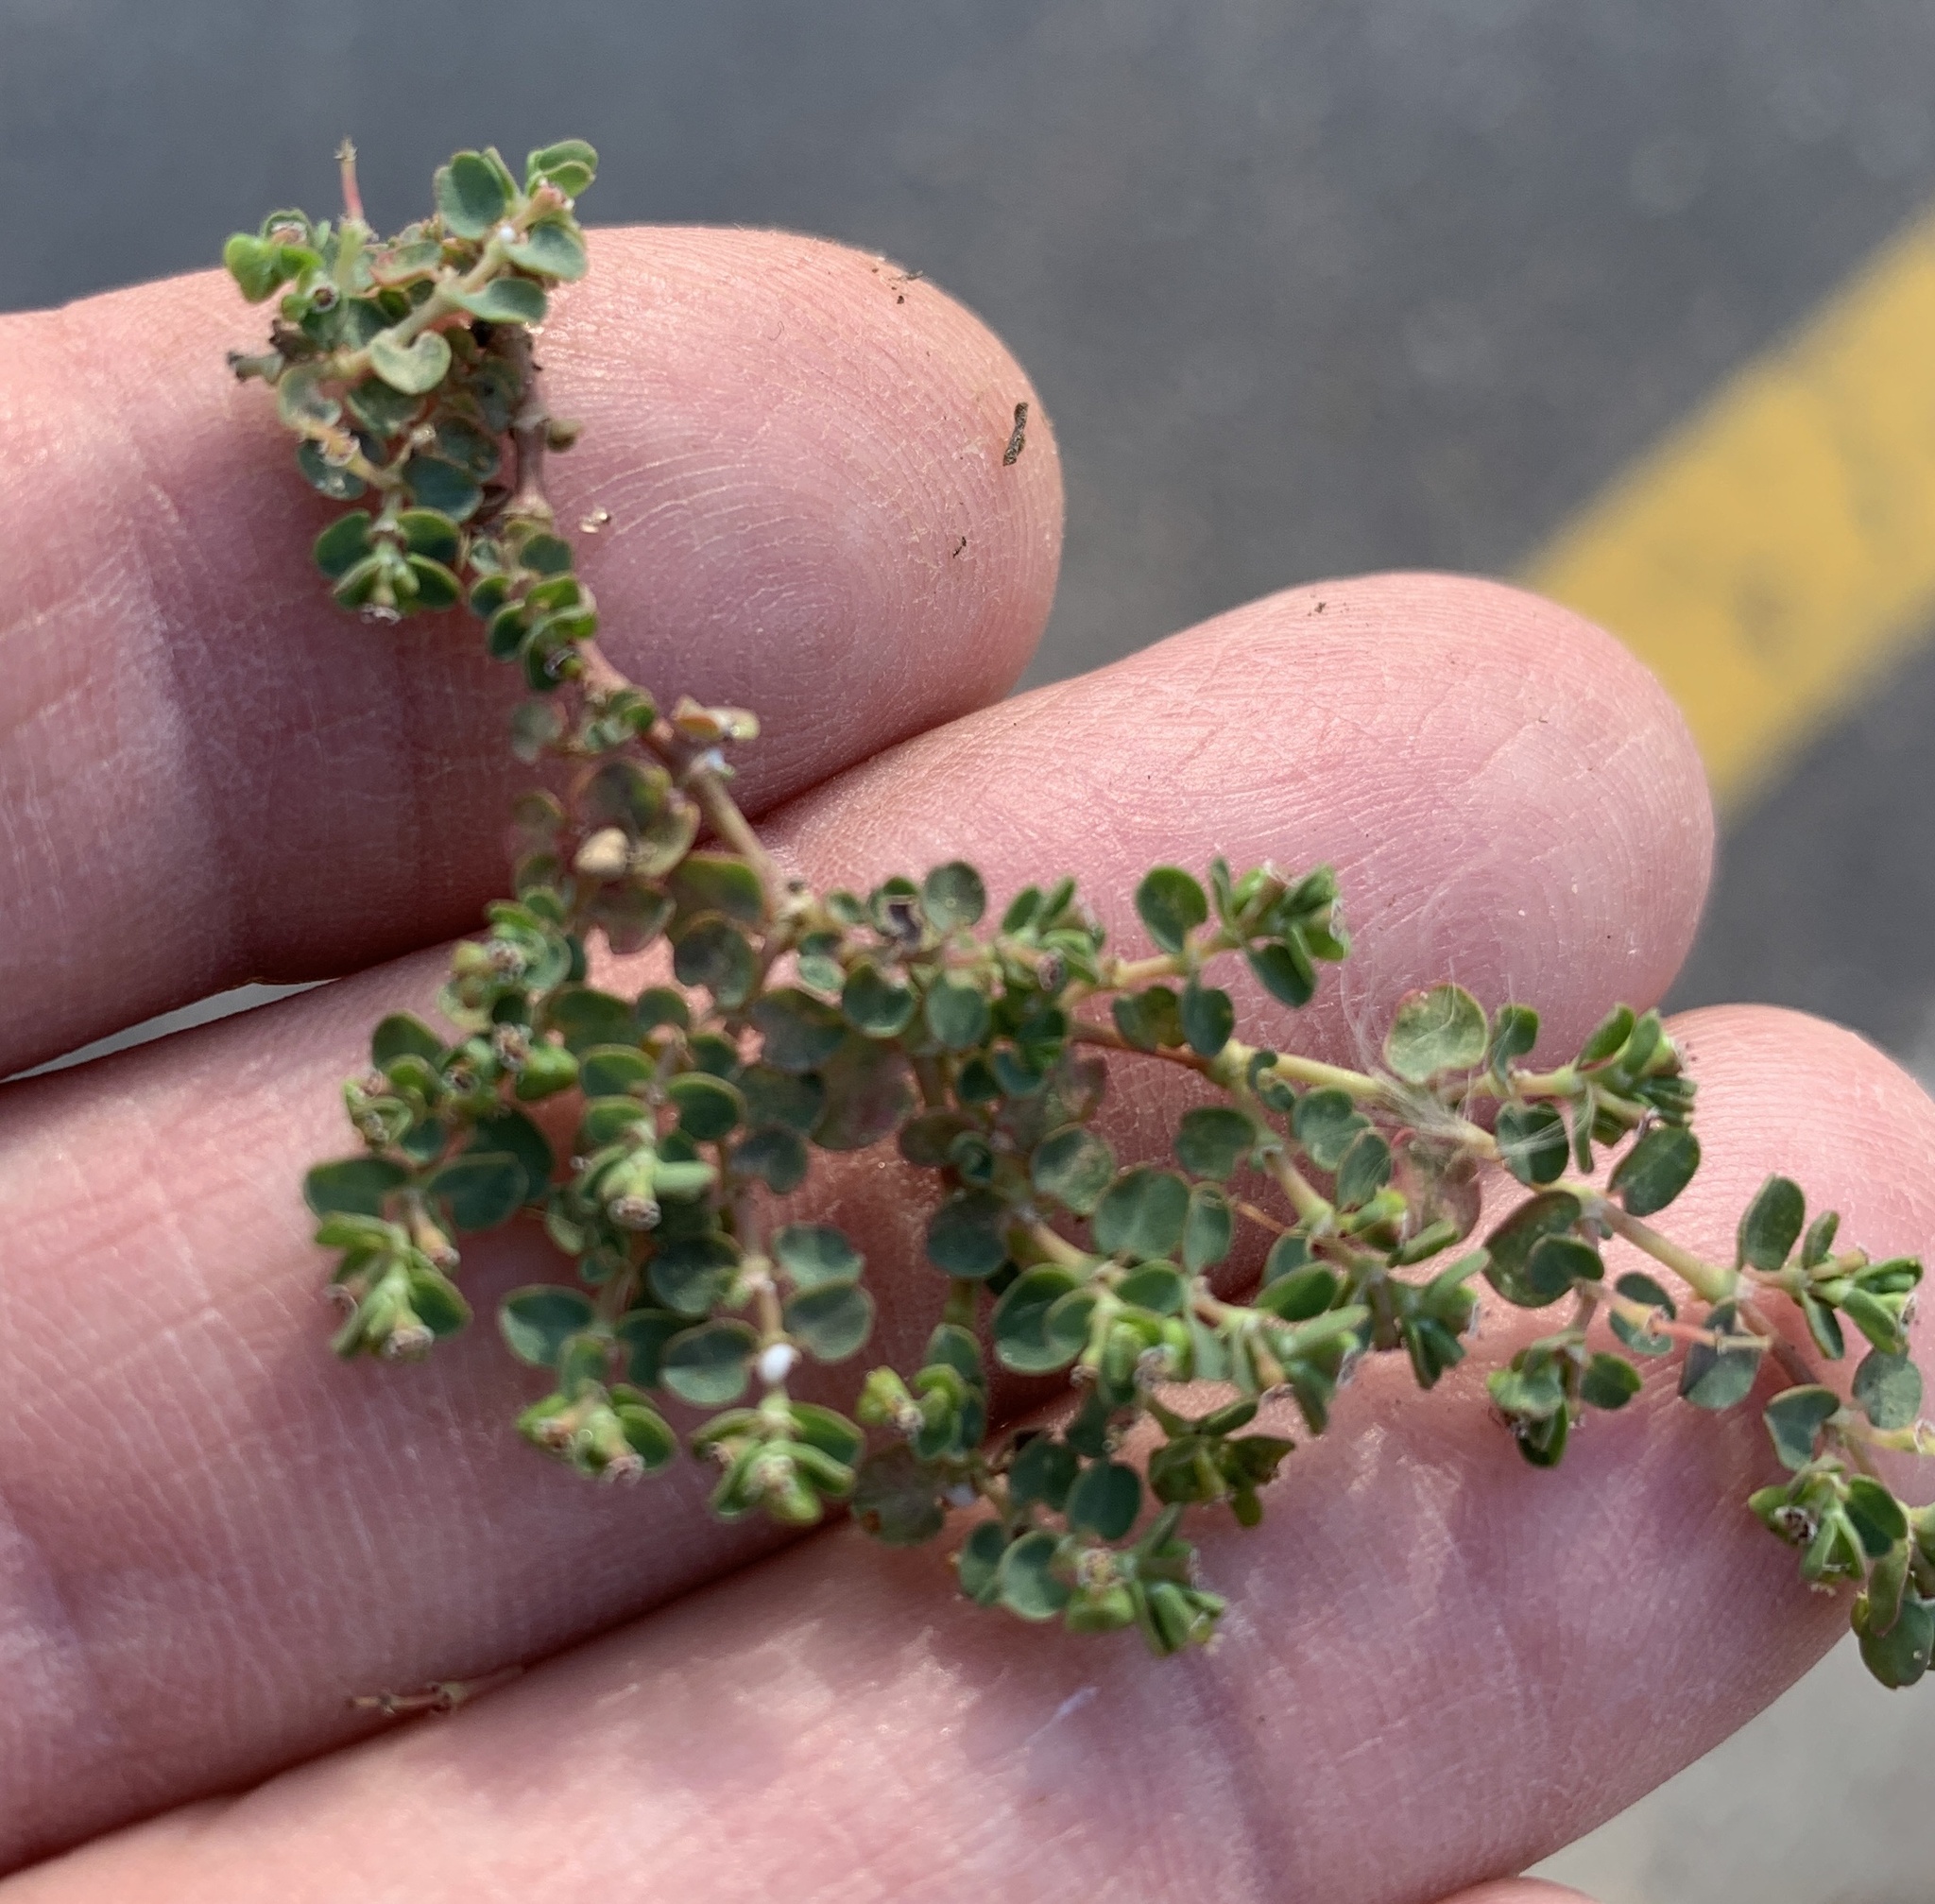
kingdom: Plantae
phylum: Tracheophyta
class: Magnoliopsida
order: Malpighiales
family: Euphorbiaceae
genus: Euphorbia
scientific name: Euphorbia serpens
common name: Matted sandmat
